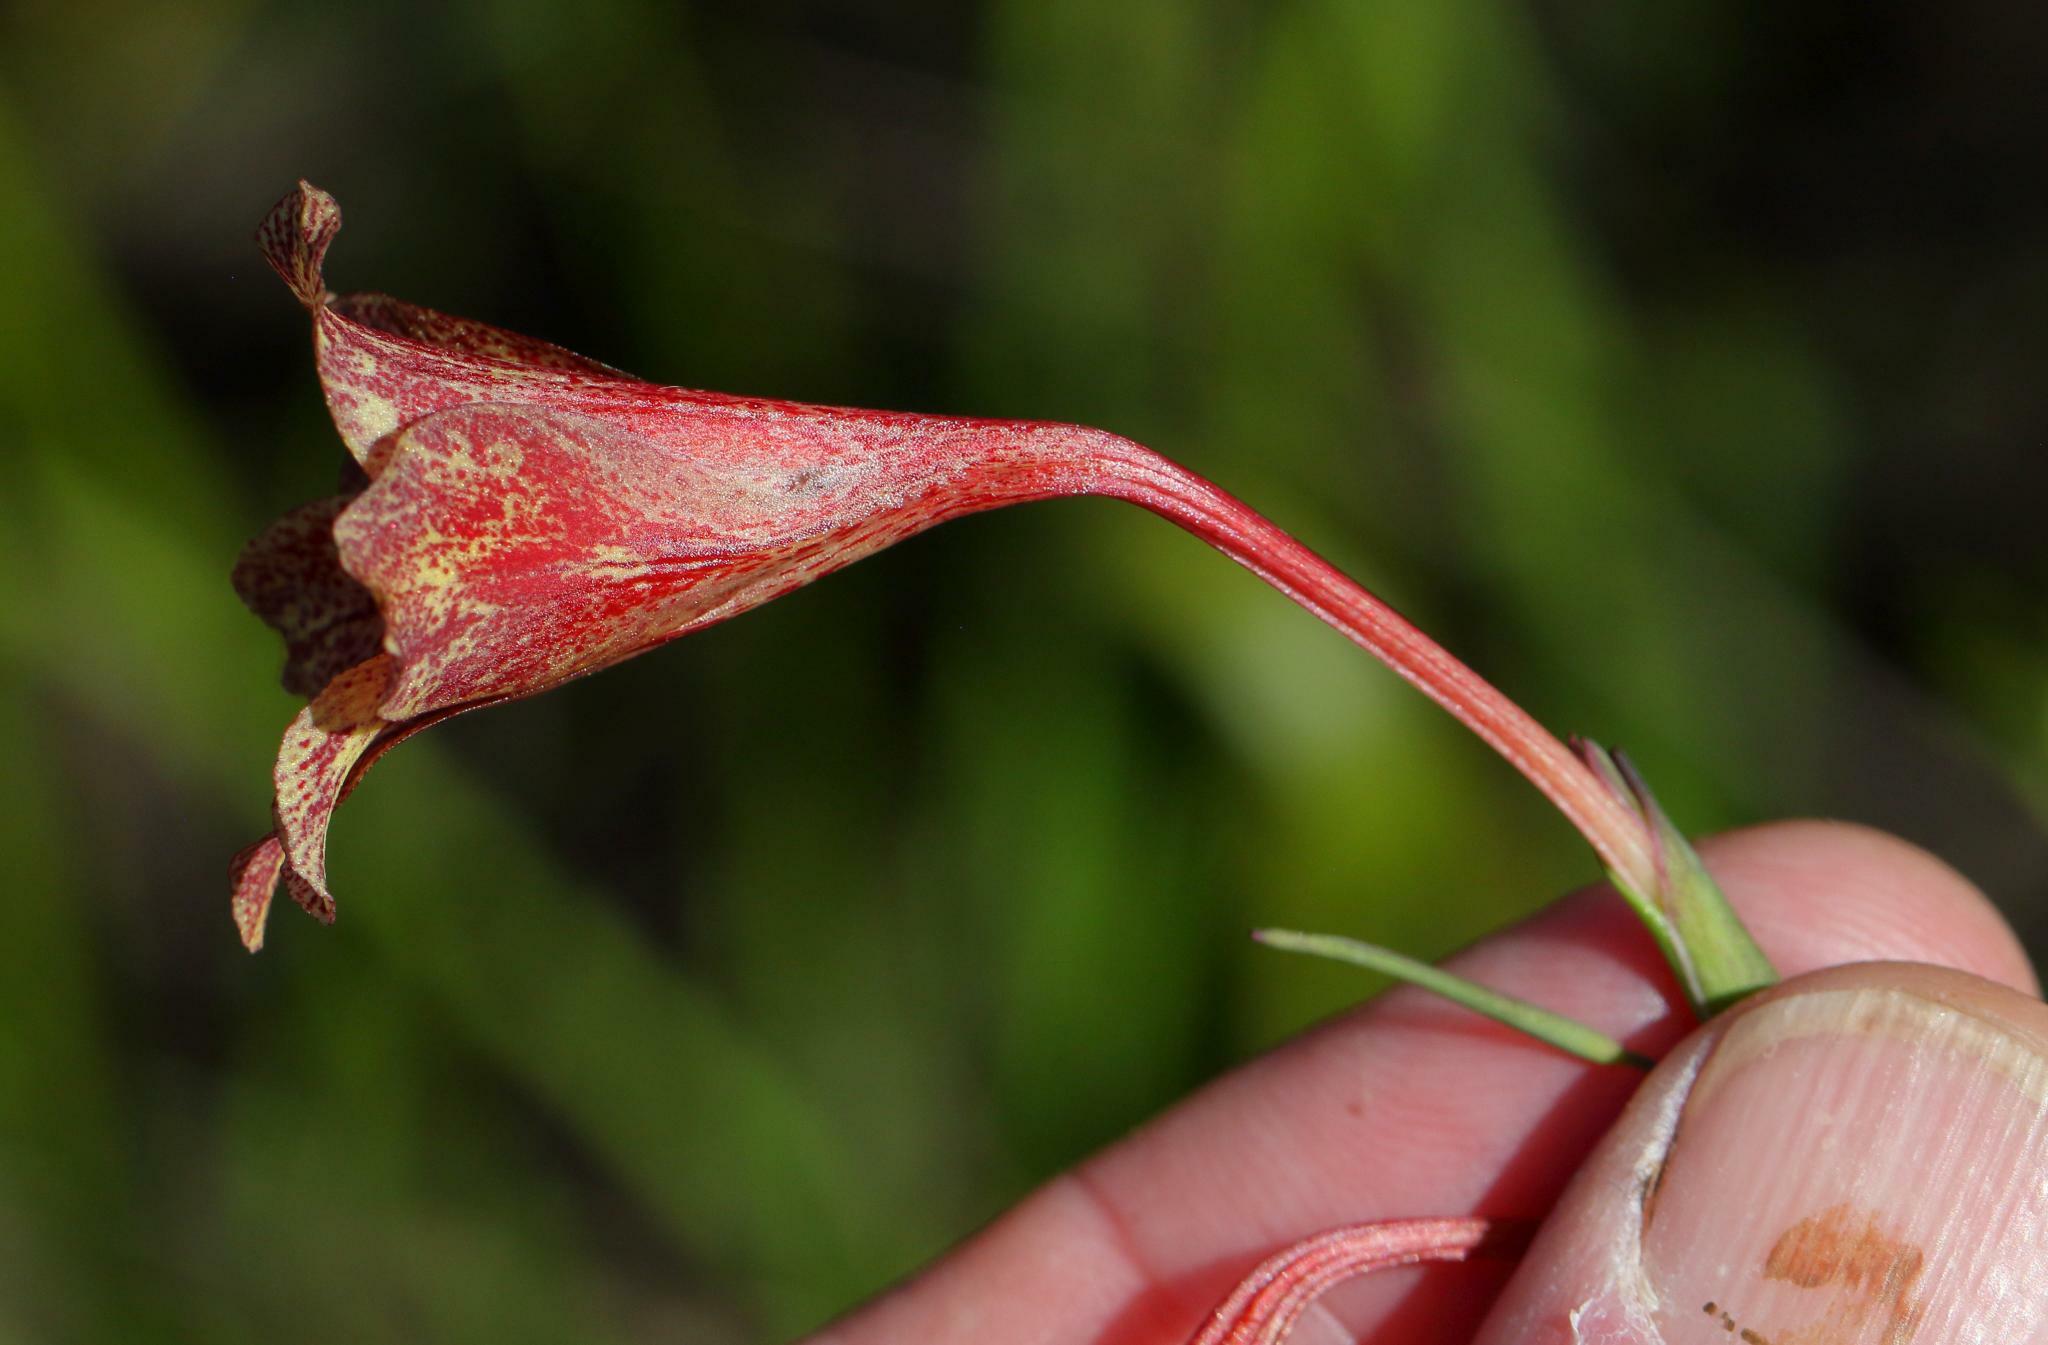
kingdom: Plantae
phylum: Tracheophyta
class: Liliopsida
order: Asparagales
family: Iridaceae
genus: Gladiolus
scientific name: Gladiolus emiliae
